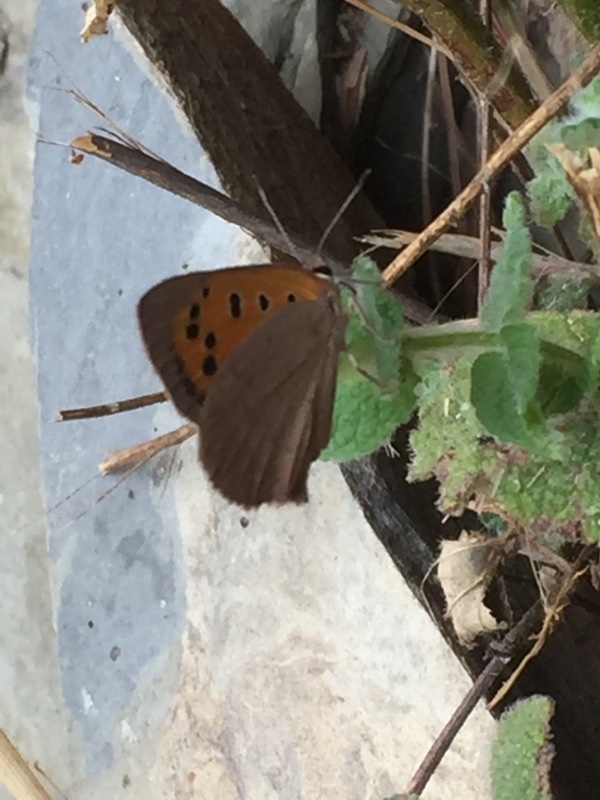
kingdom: Animalia
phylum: Arthropoda
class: Insecta
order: Lepidoptera
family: Lycaenidae
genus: Lycaena
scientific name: Lycaena phlaeas
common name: Small copper
